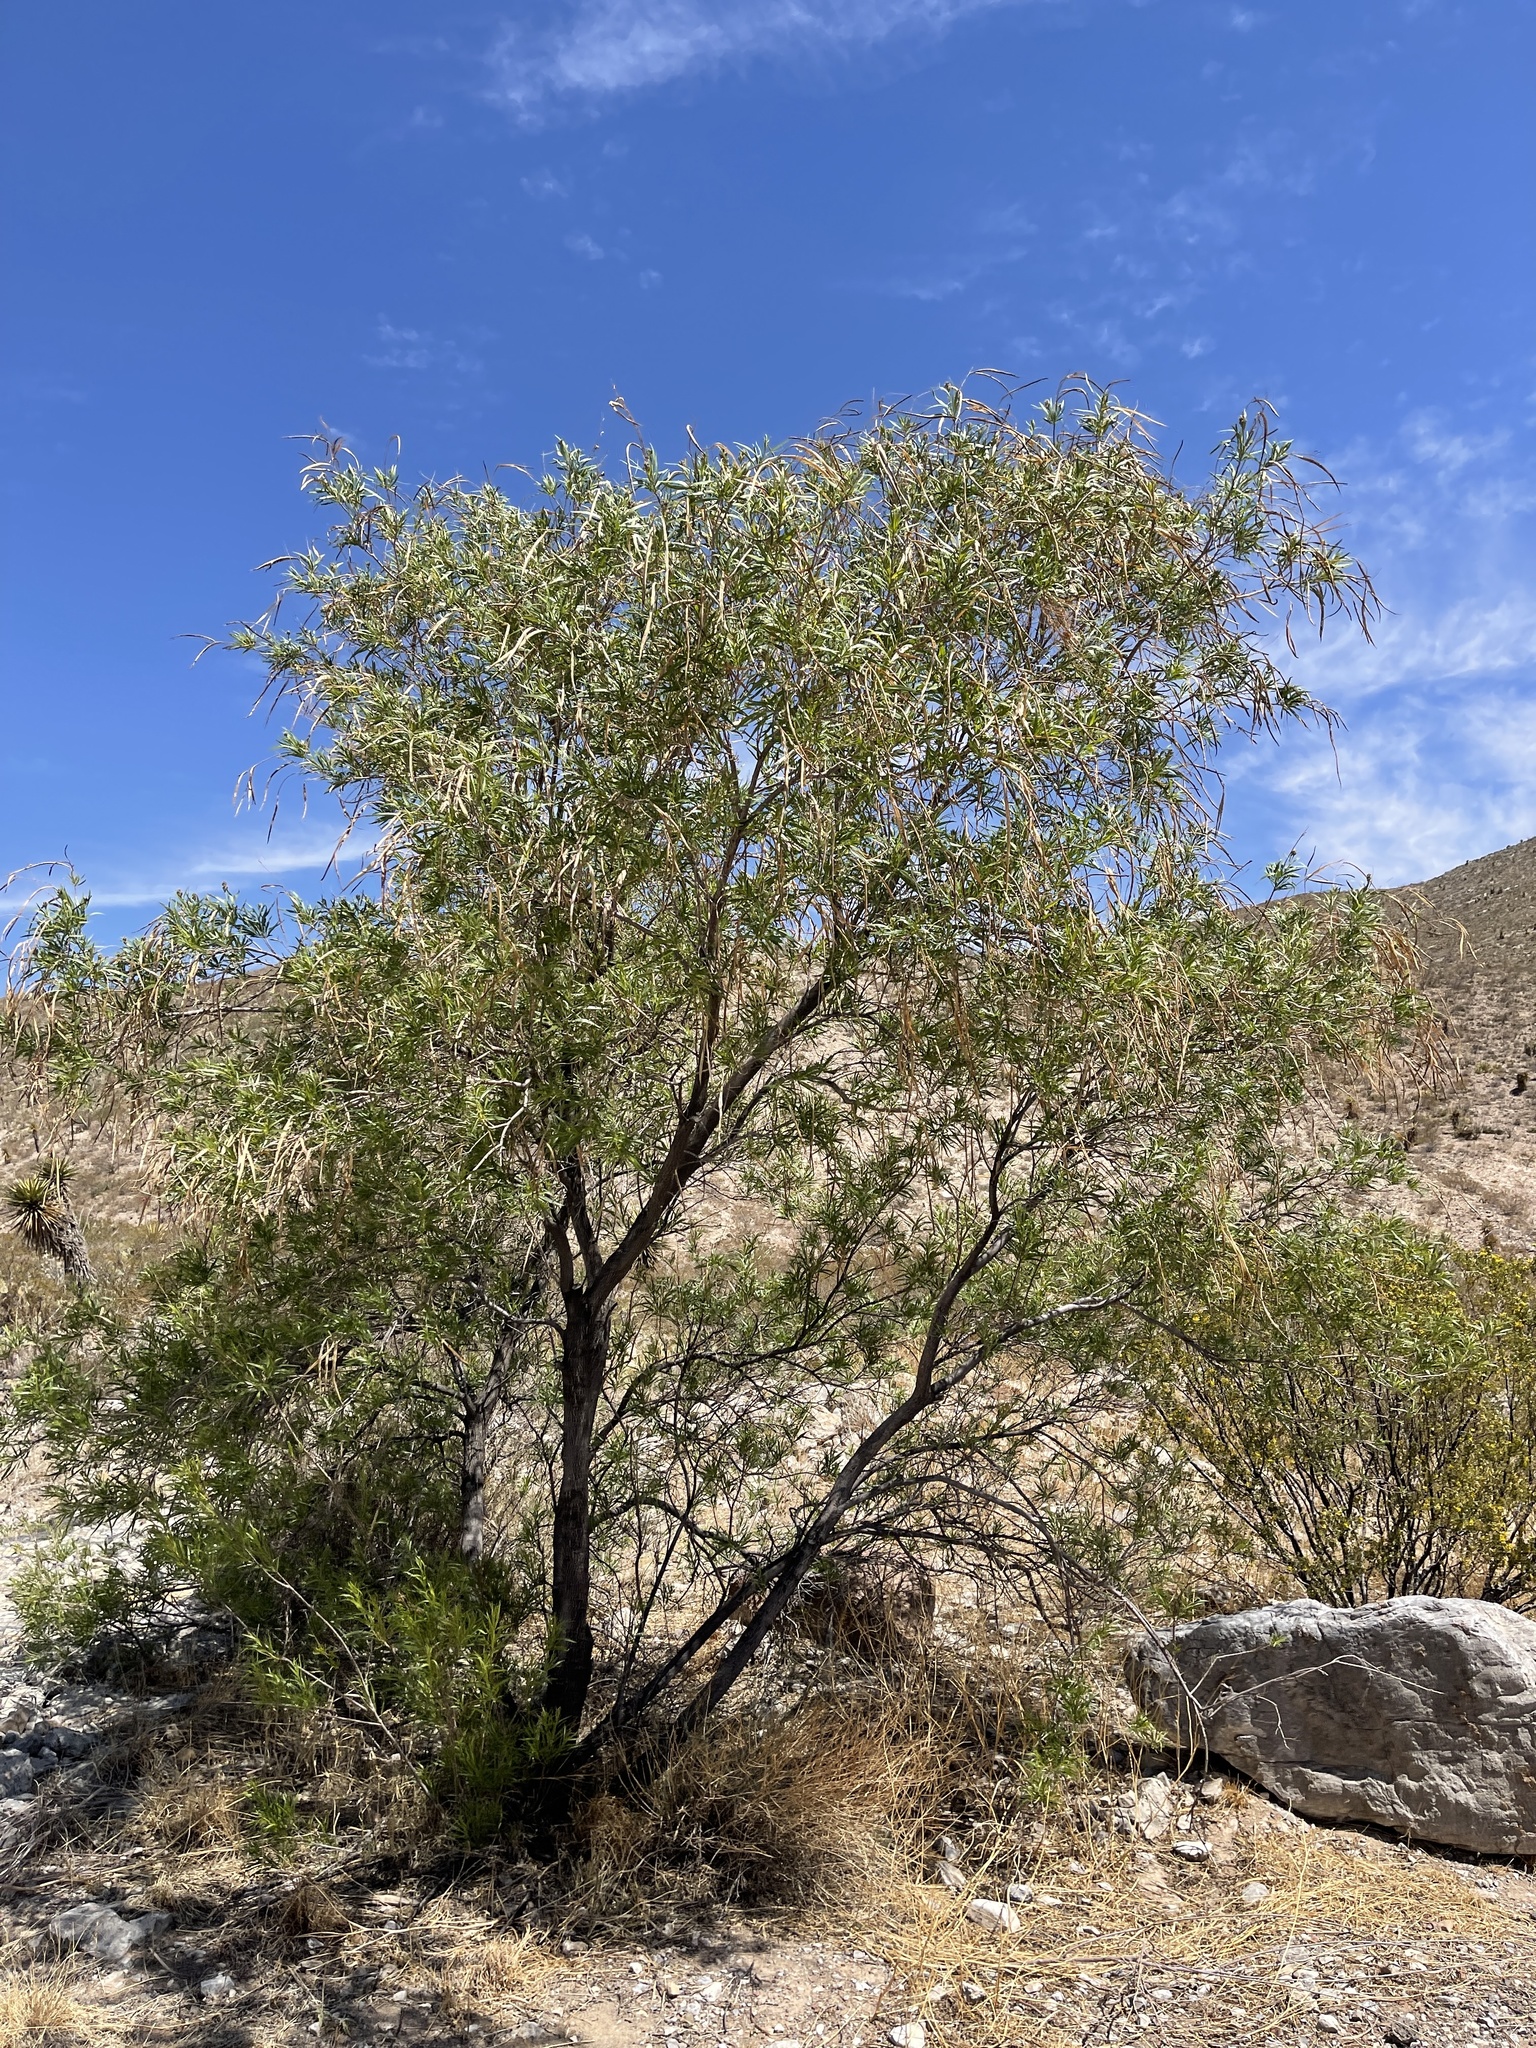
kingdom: Plantae
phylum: Tracheophyta
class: Magnoliopsida
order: Lamiales
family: Bignoniaceae
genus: Chilopsis
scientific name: Chilopsis linearis
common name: Desert-willow
